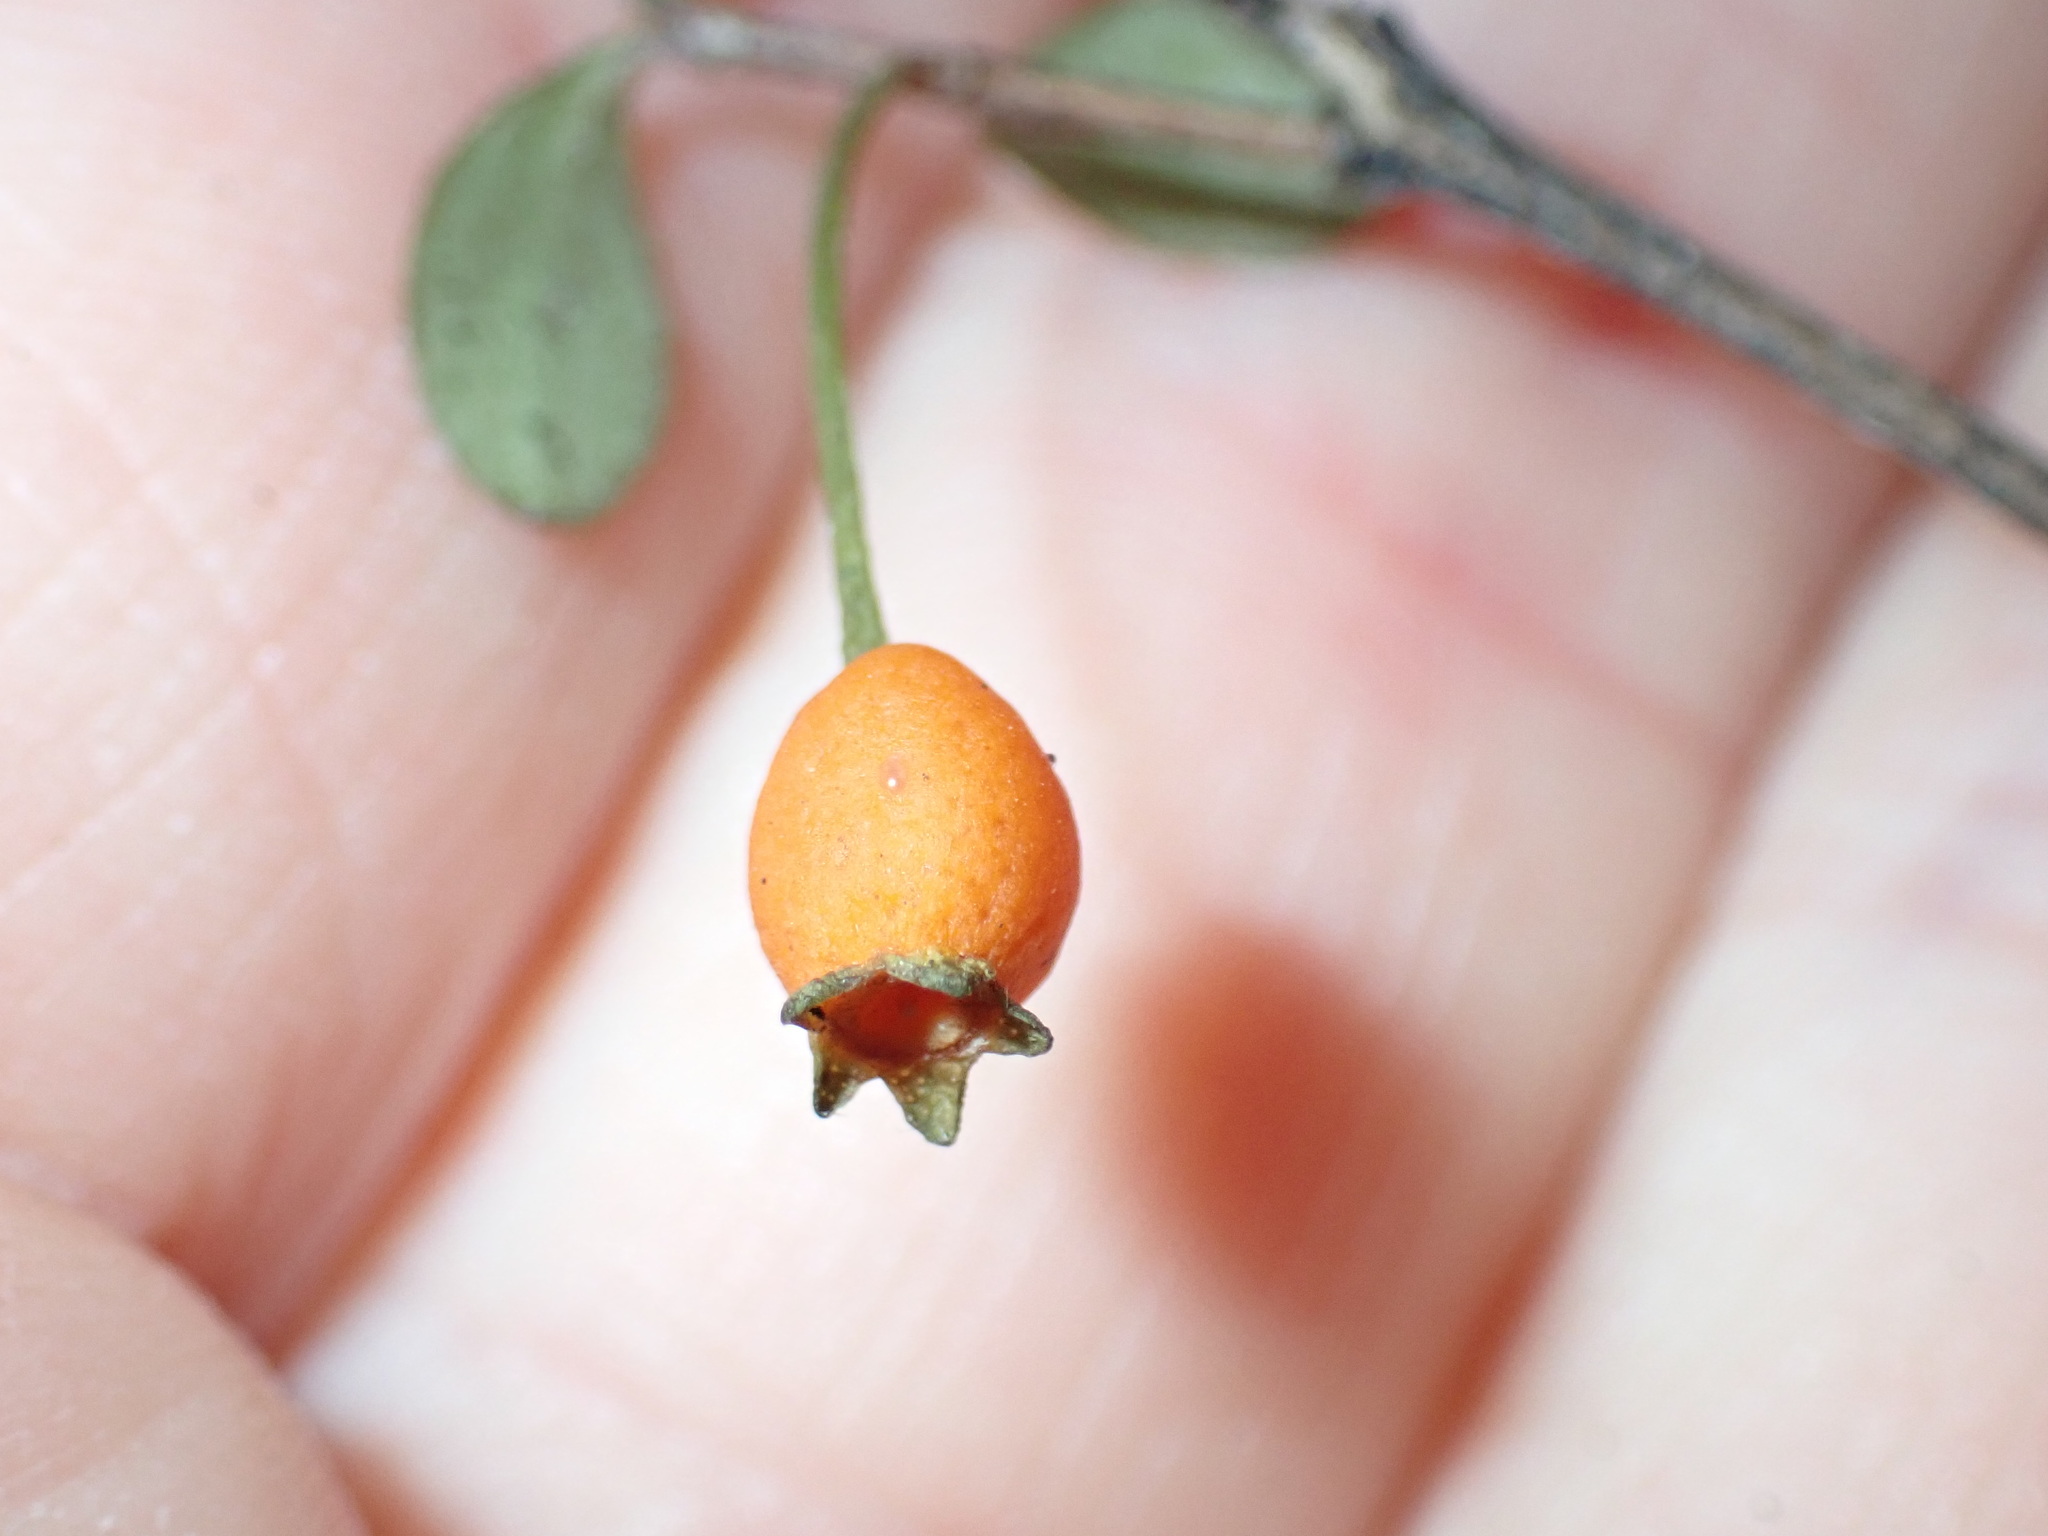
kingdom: Plantae
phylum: Tracheophyta
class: Magnoliopsida
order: Myrtales
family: Myrtaceae
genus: Neomyrtus
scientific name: Neomyrtus pedunculata
